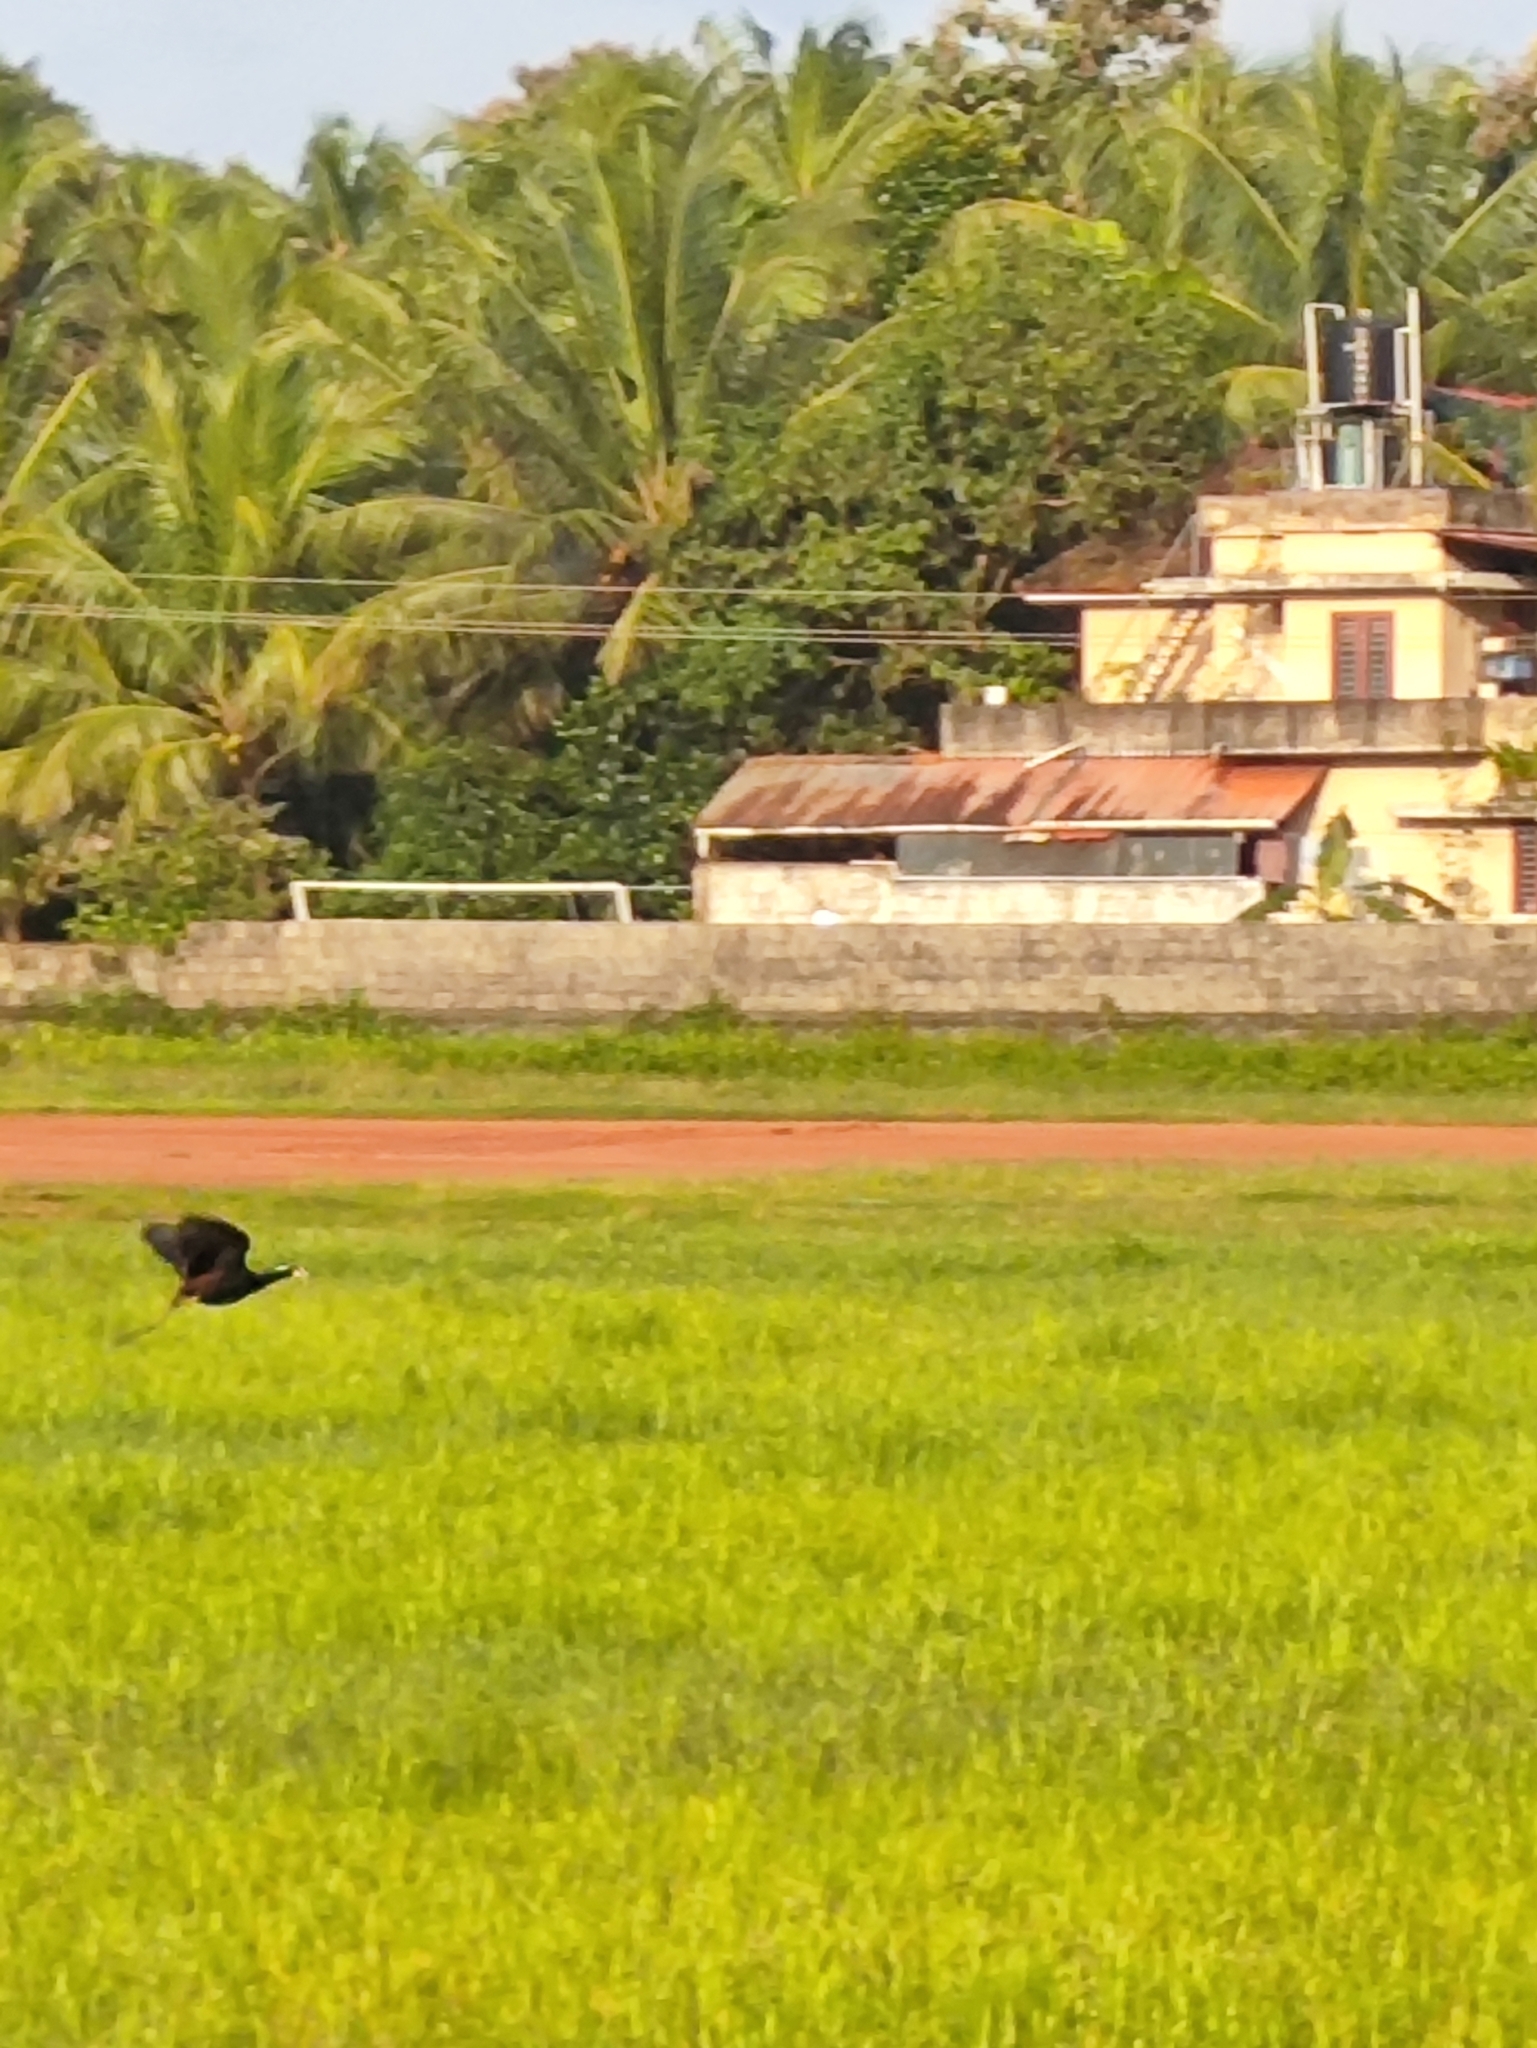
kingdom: Animalia
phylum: Chordata
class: Aves
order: Charadriiformes
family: Jacanidae
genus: Metopidius
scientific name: Metopidius indicus
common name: Bronze-winged jacana
